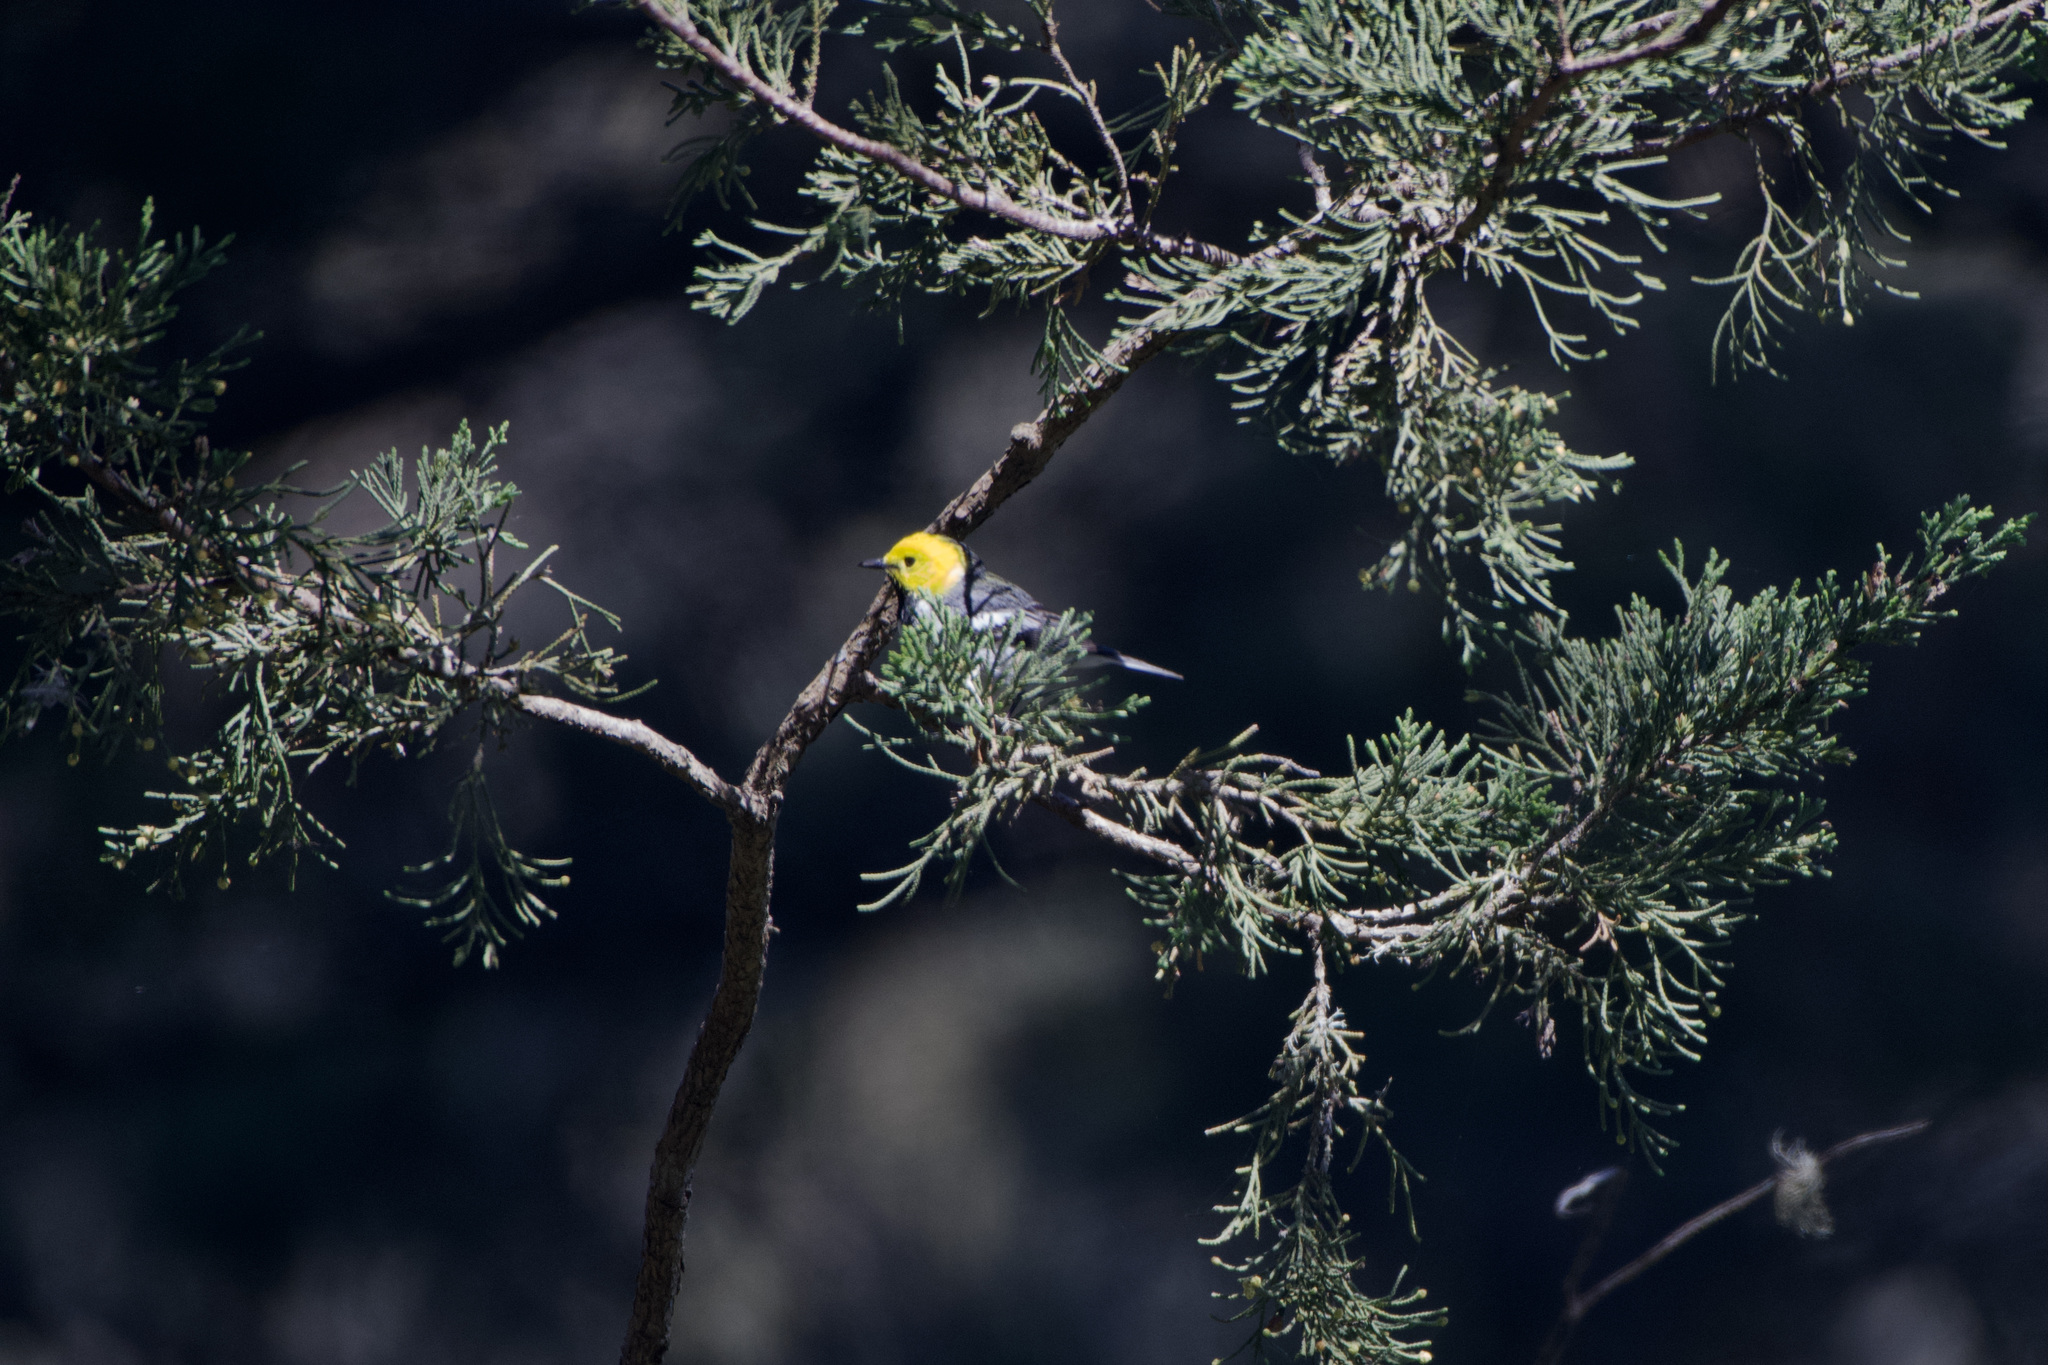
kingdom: Animalia
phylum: Chordata
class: Aves
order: Passeriformes
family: Parulidae
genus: Setophaga
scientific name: Setophaga occidentalis
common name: Hermit warbler
